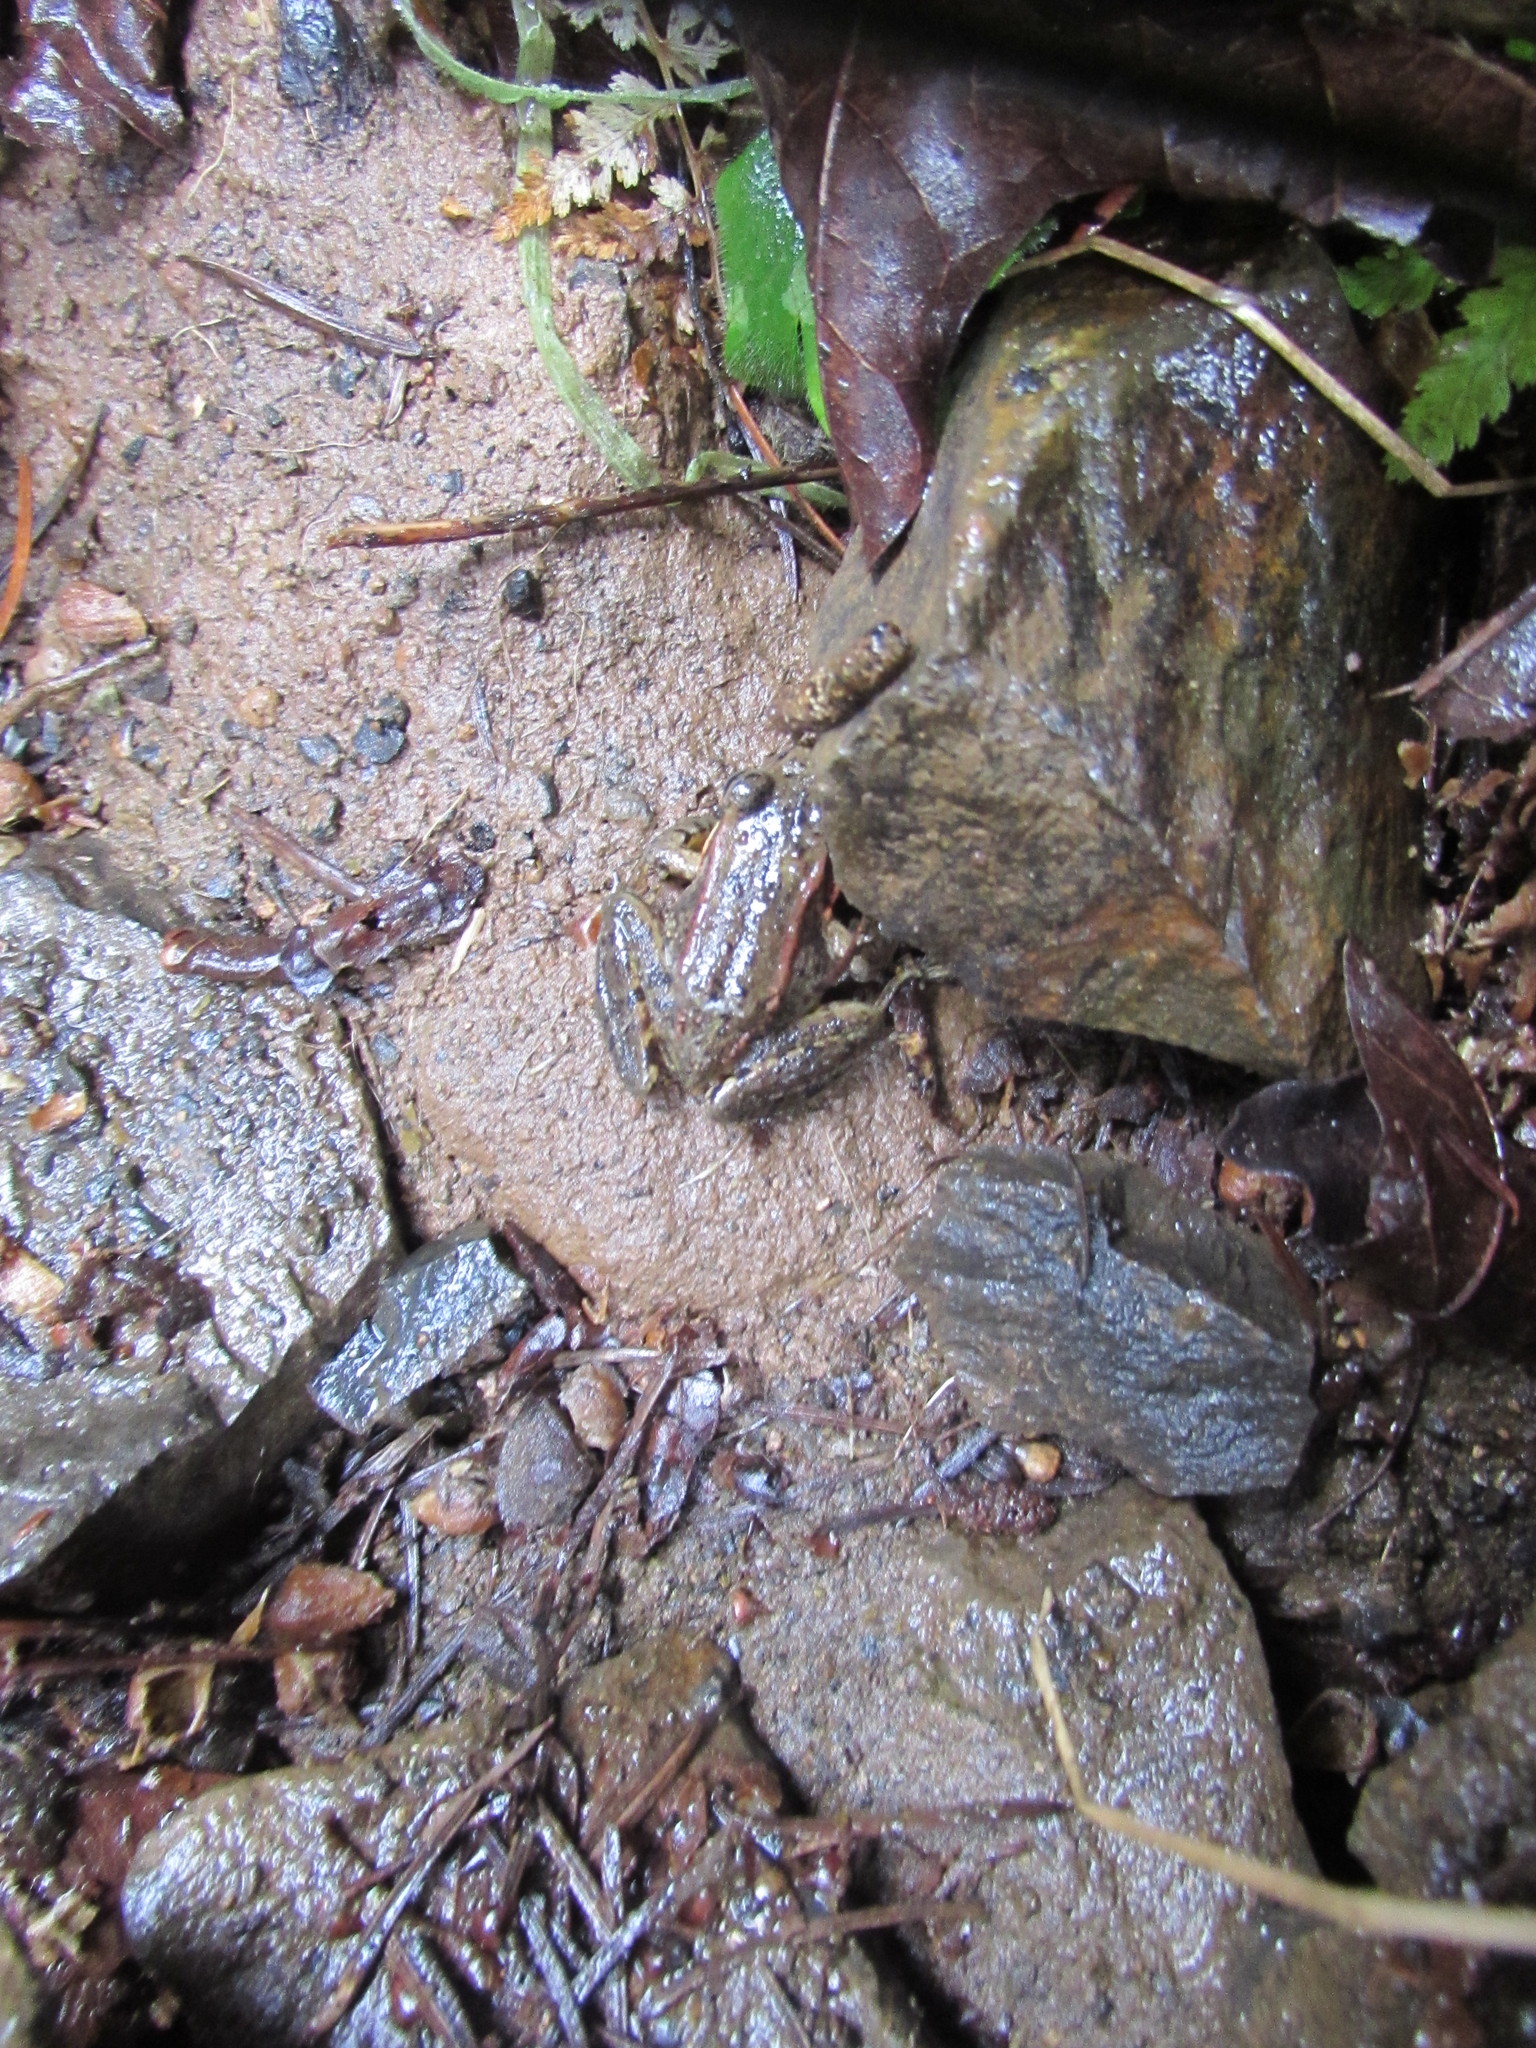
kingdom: Animalia
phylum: Chordata
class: Amphibia
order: Anura
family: Ranidae
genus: Rana
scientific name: Rana aurora
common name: Red-legged frog
